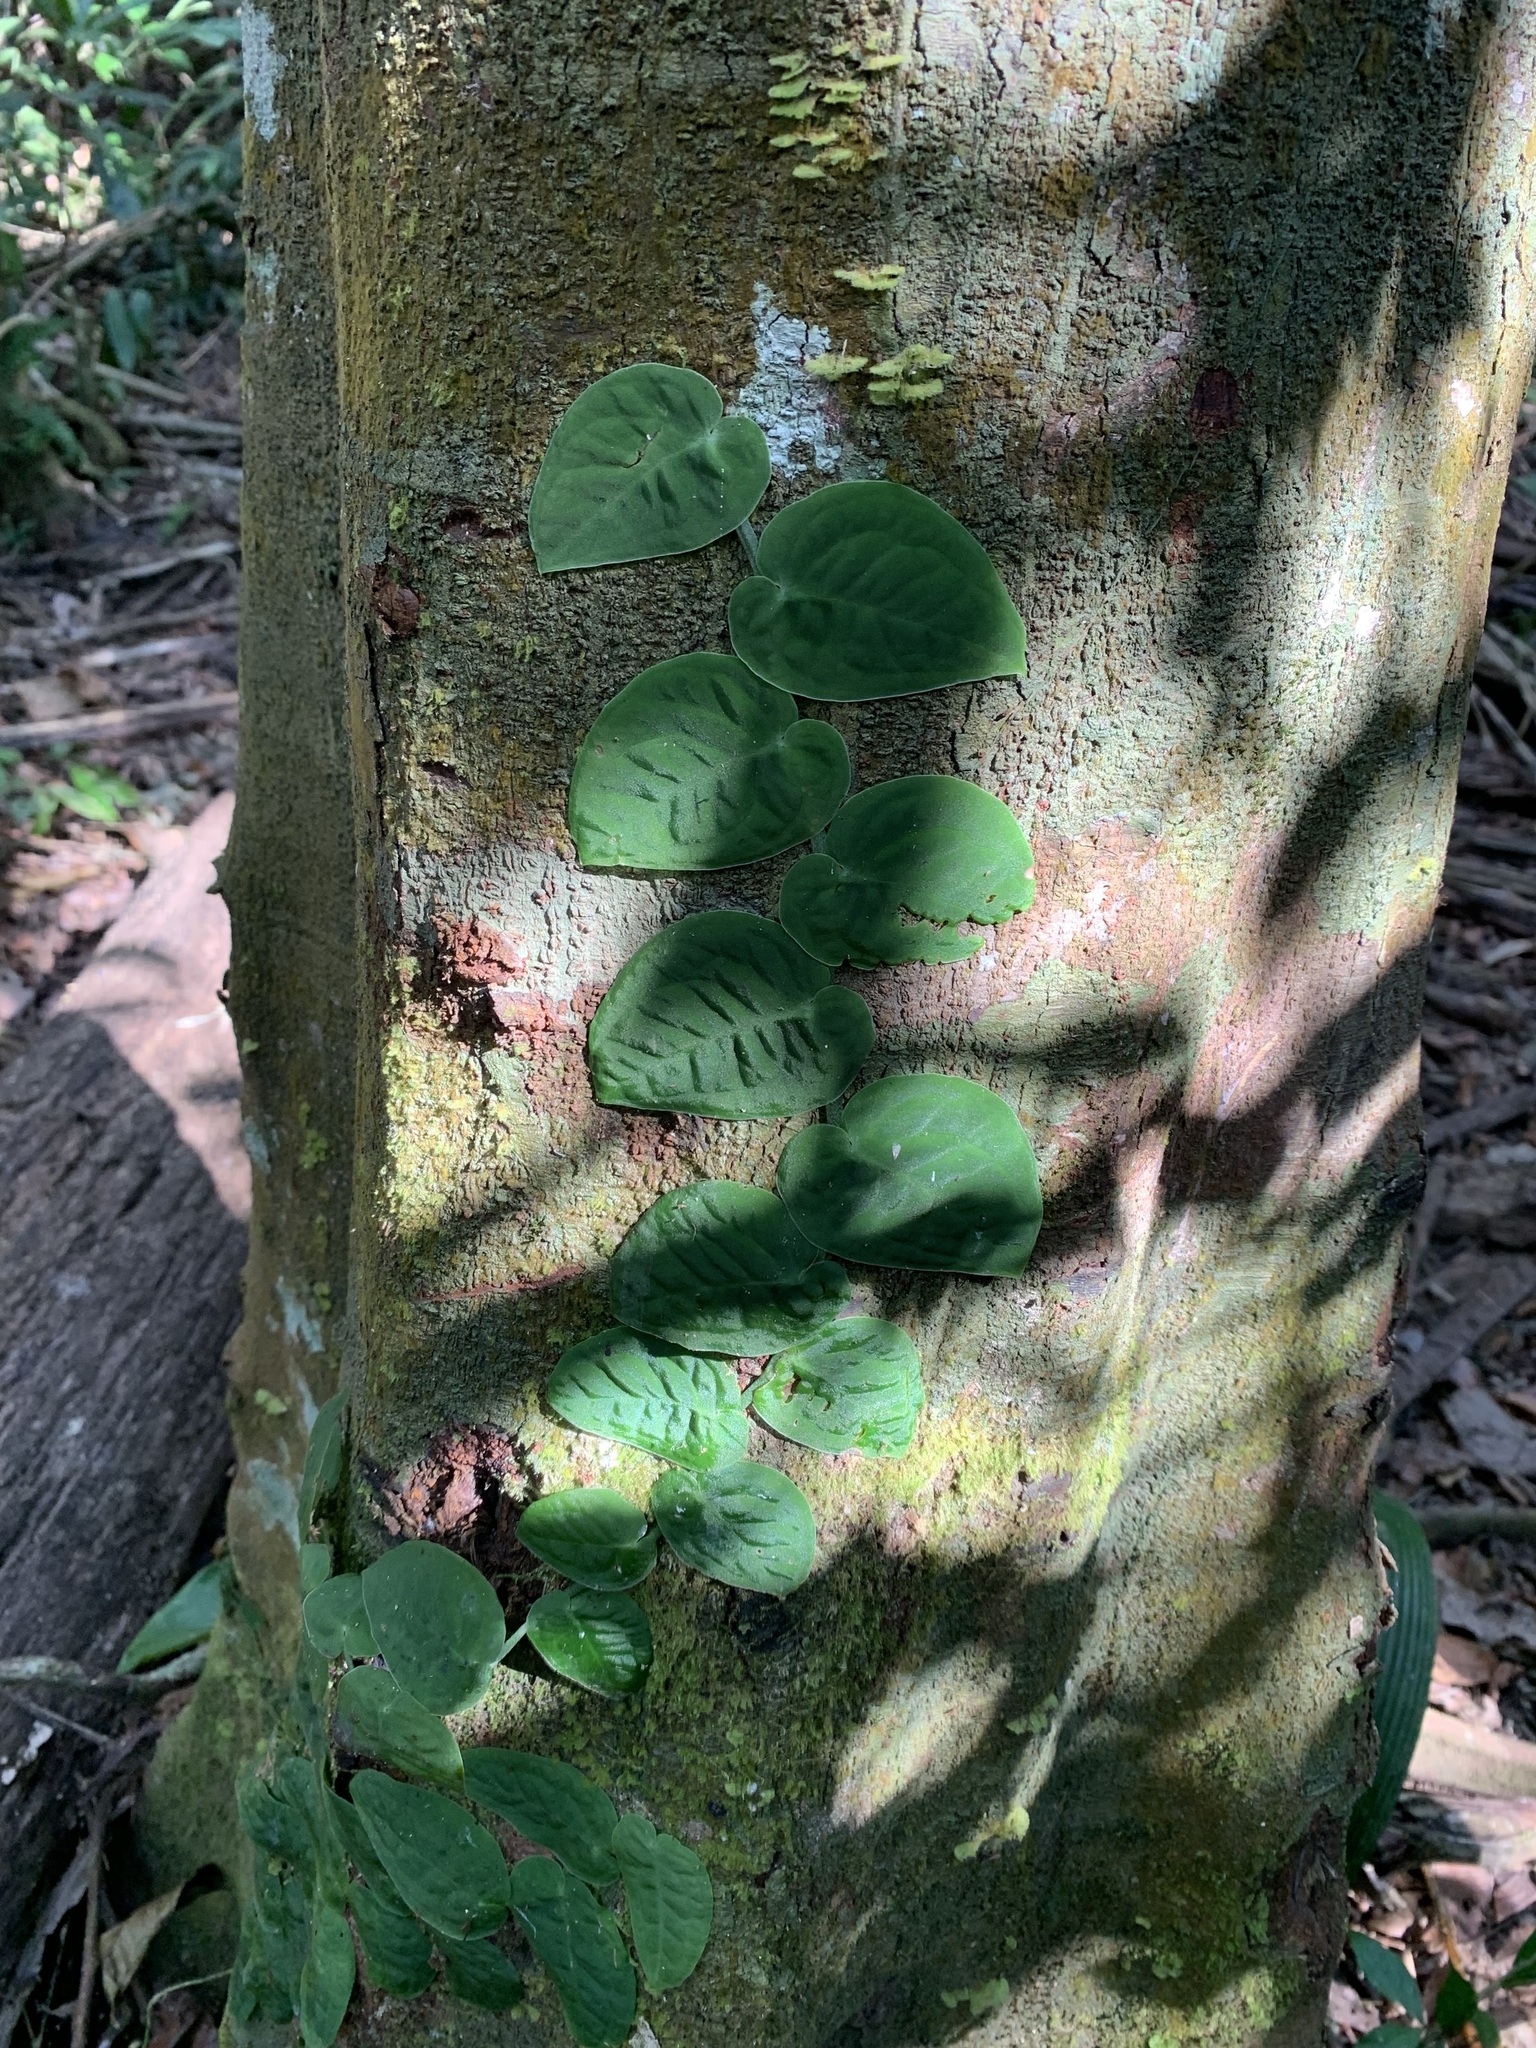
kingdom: Plantae
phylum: Tracheophyta
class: Liliopsida
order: Alismatales
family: Araceae
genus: Monstera
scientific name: Monstera dubia
